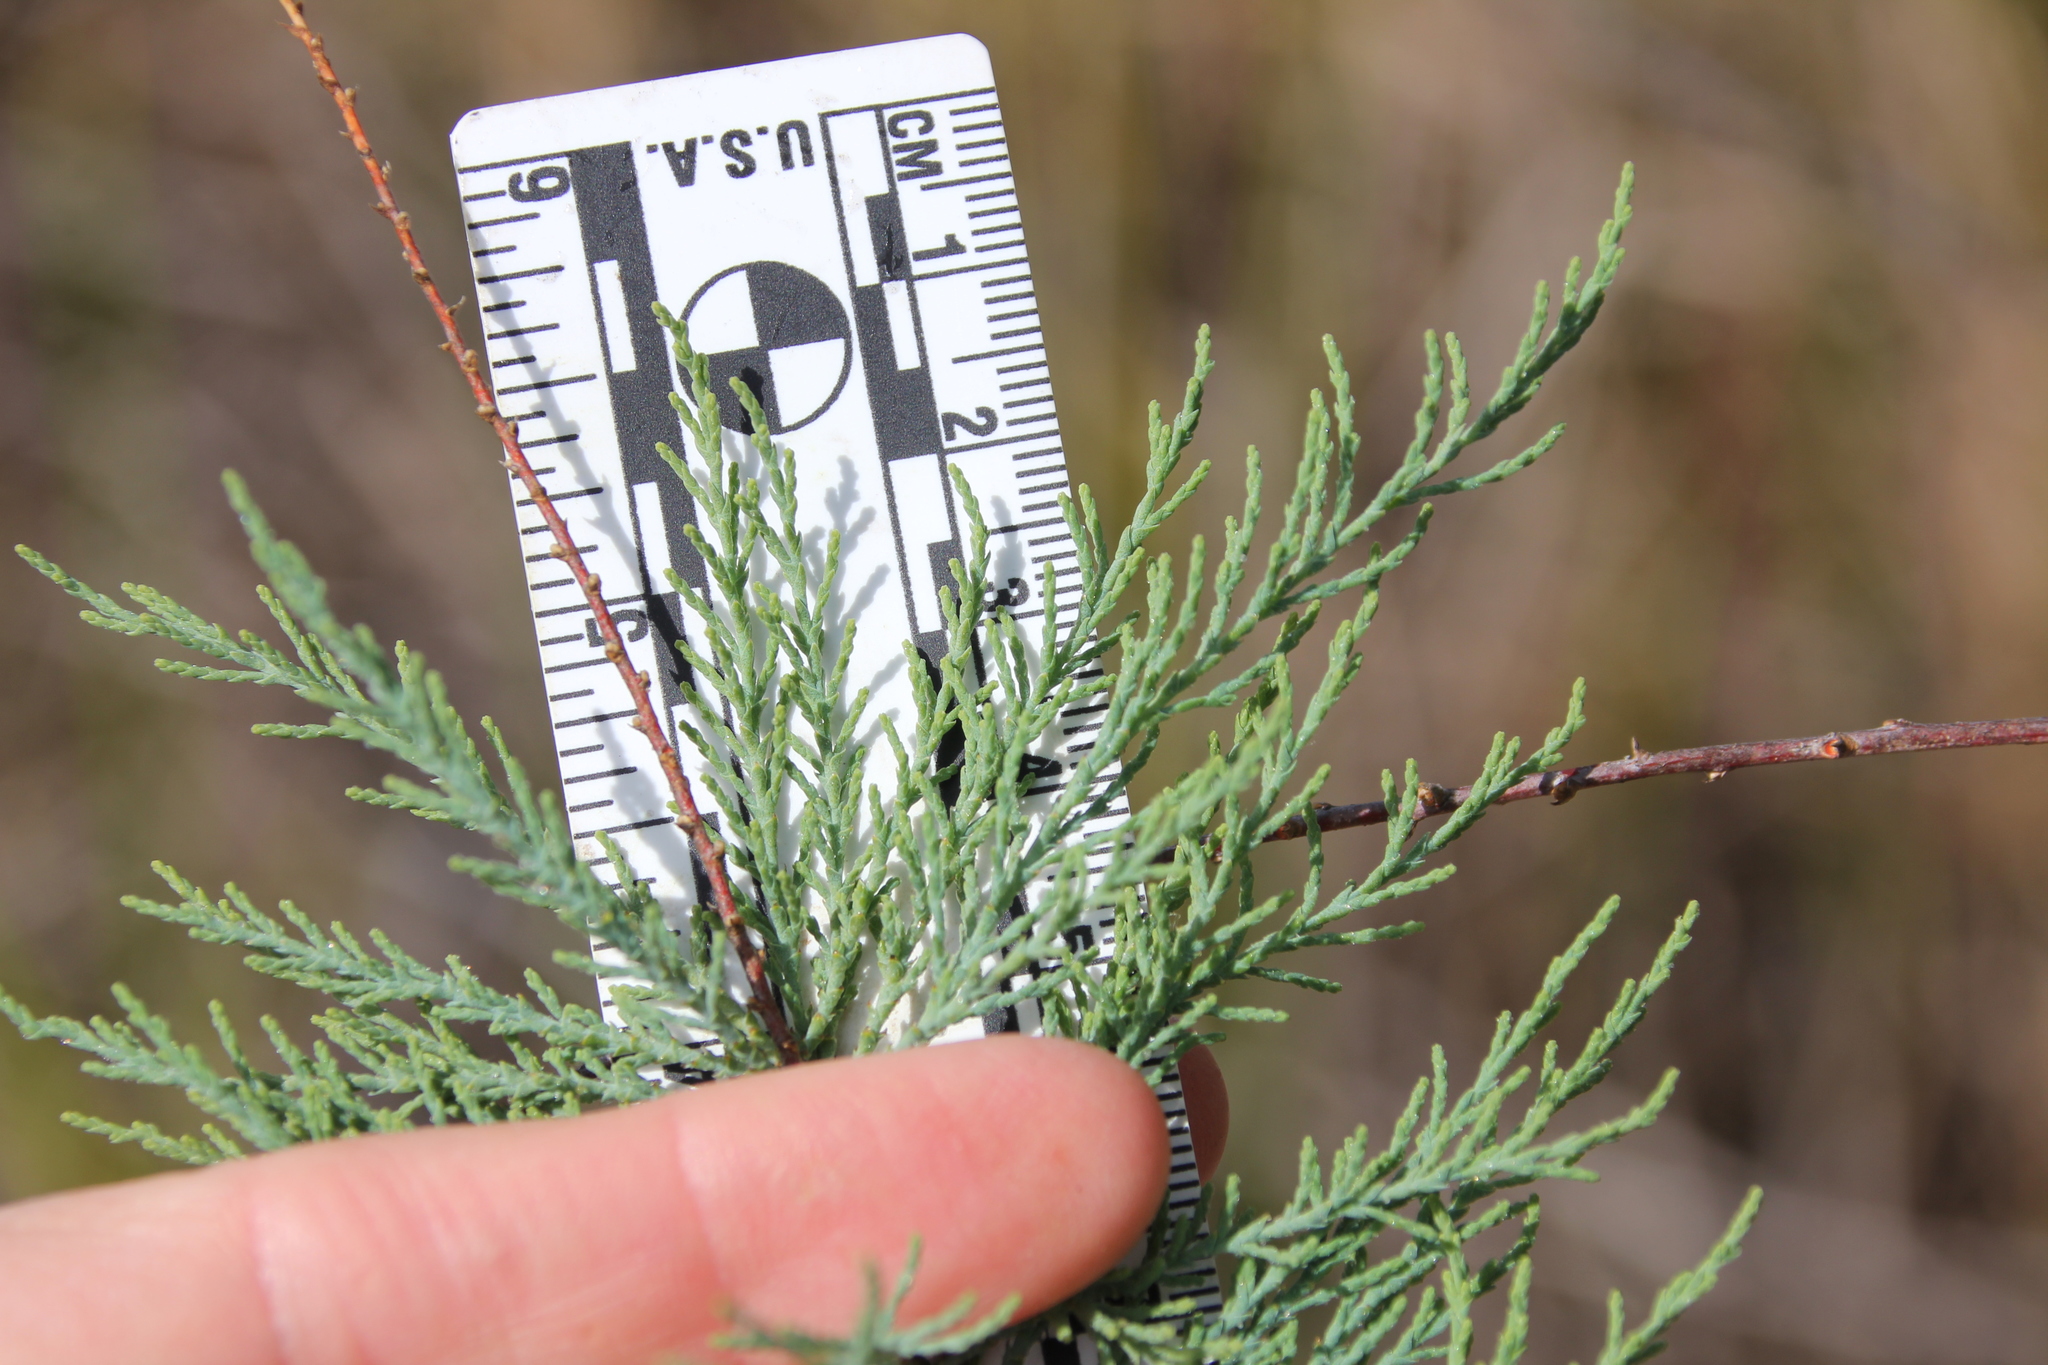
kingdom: Plantae
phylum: Tracheophyta
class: Magnoliopsida
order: Caryophyllales
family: Tamaricaceae
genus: Tamarix
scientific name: Tamarix
